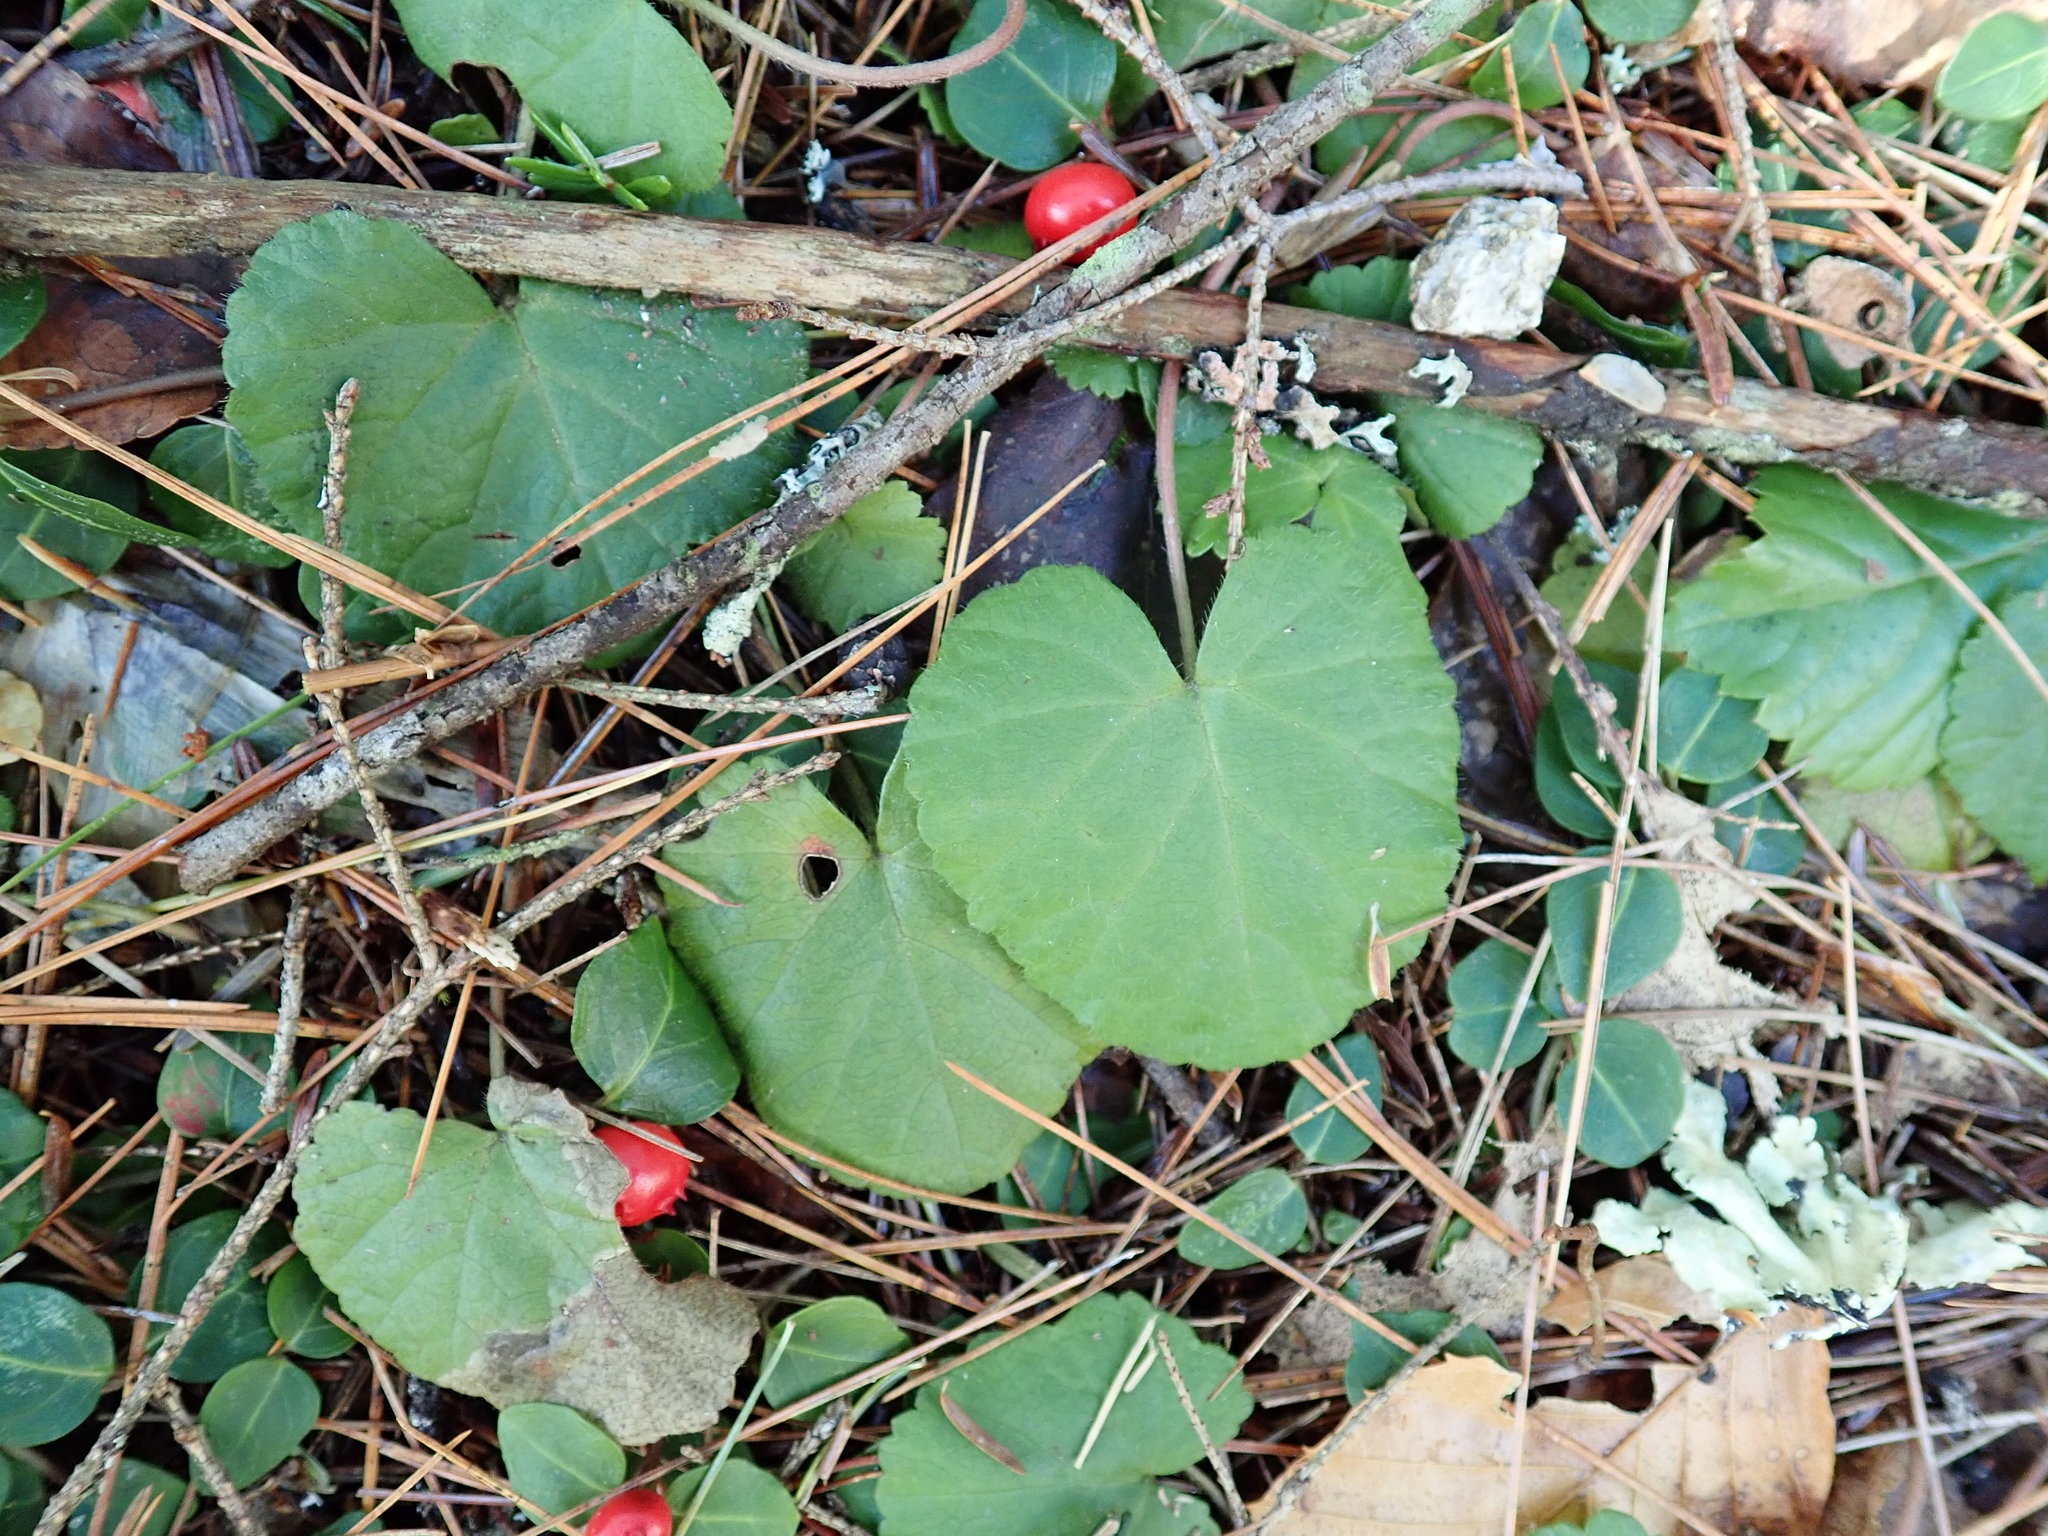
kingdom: Plantae
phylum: Tracheophyta
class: Magnoliopsida
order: Rosales
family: Rosaceae
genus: Dalibarda
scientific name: Dalibarda repens
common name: Dewdrop
